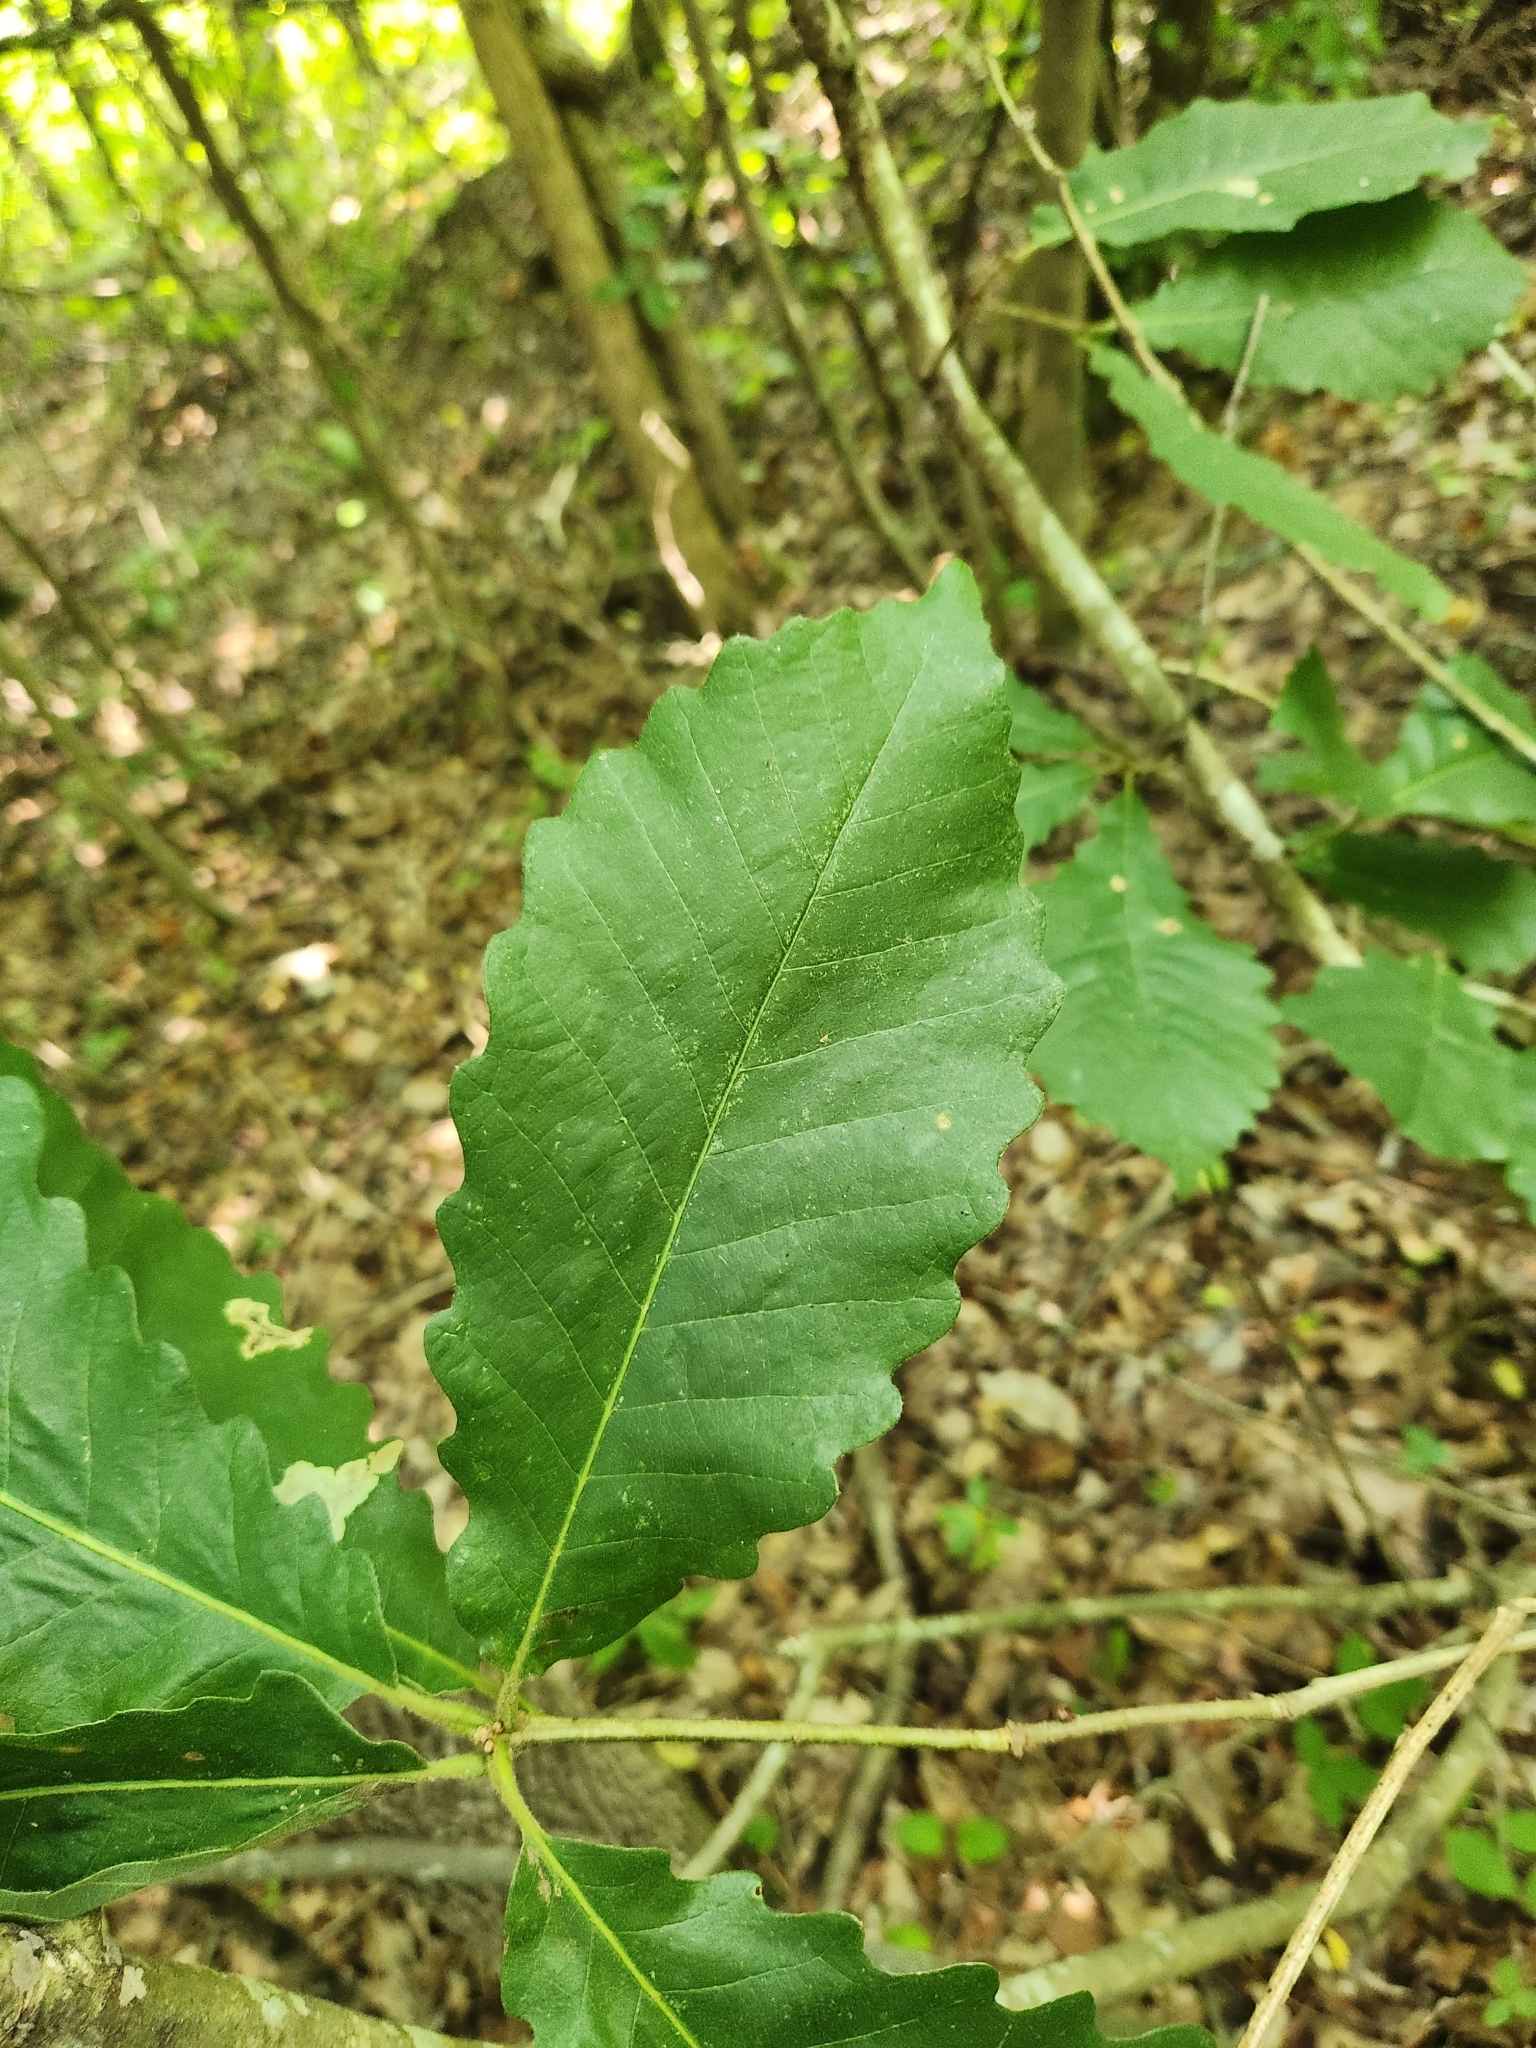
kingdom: Plantae
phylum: Tracheophyta
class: Magnoliopsida
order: Fagales
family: Fagaceae
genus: Quercus
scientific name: Quercus michauxii
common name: Swamp chestnut oak
